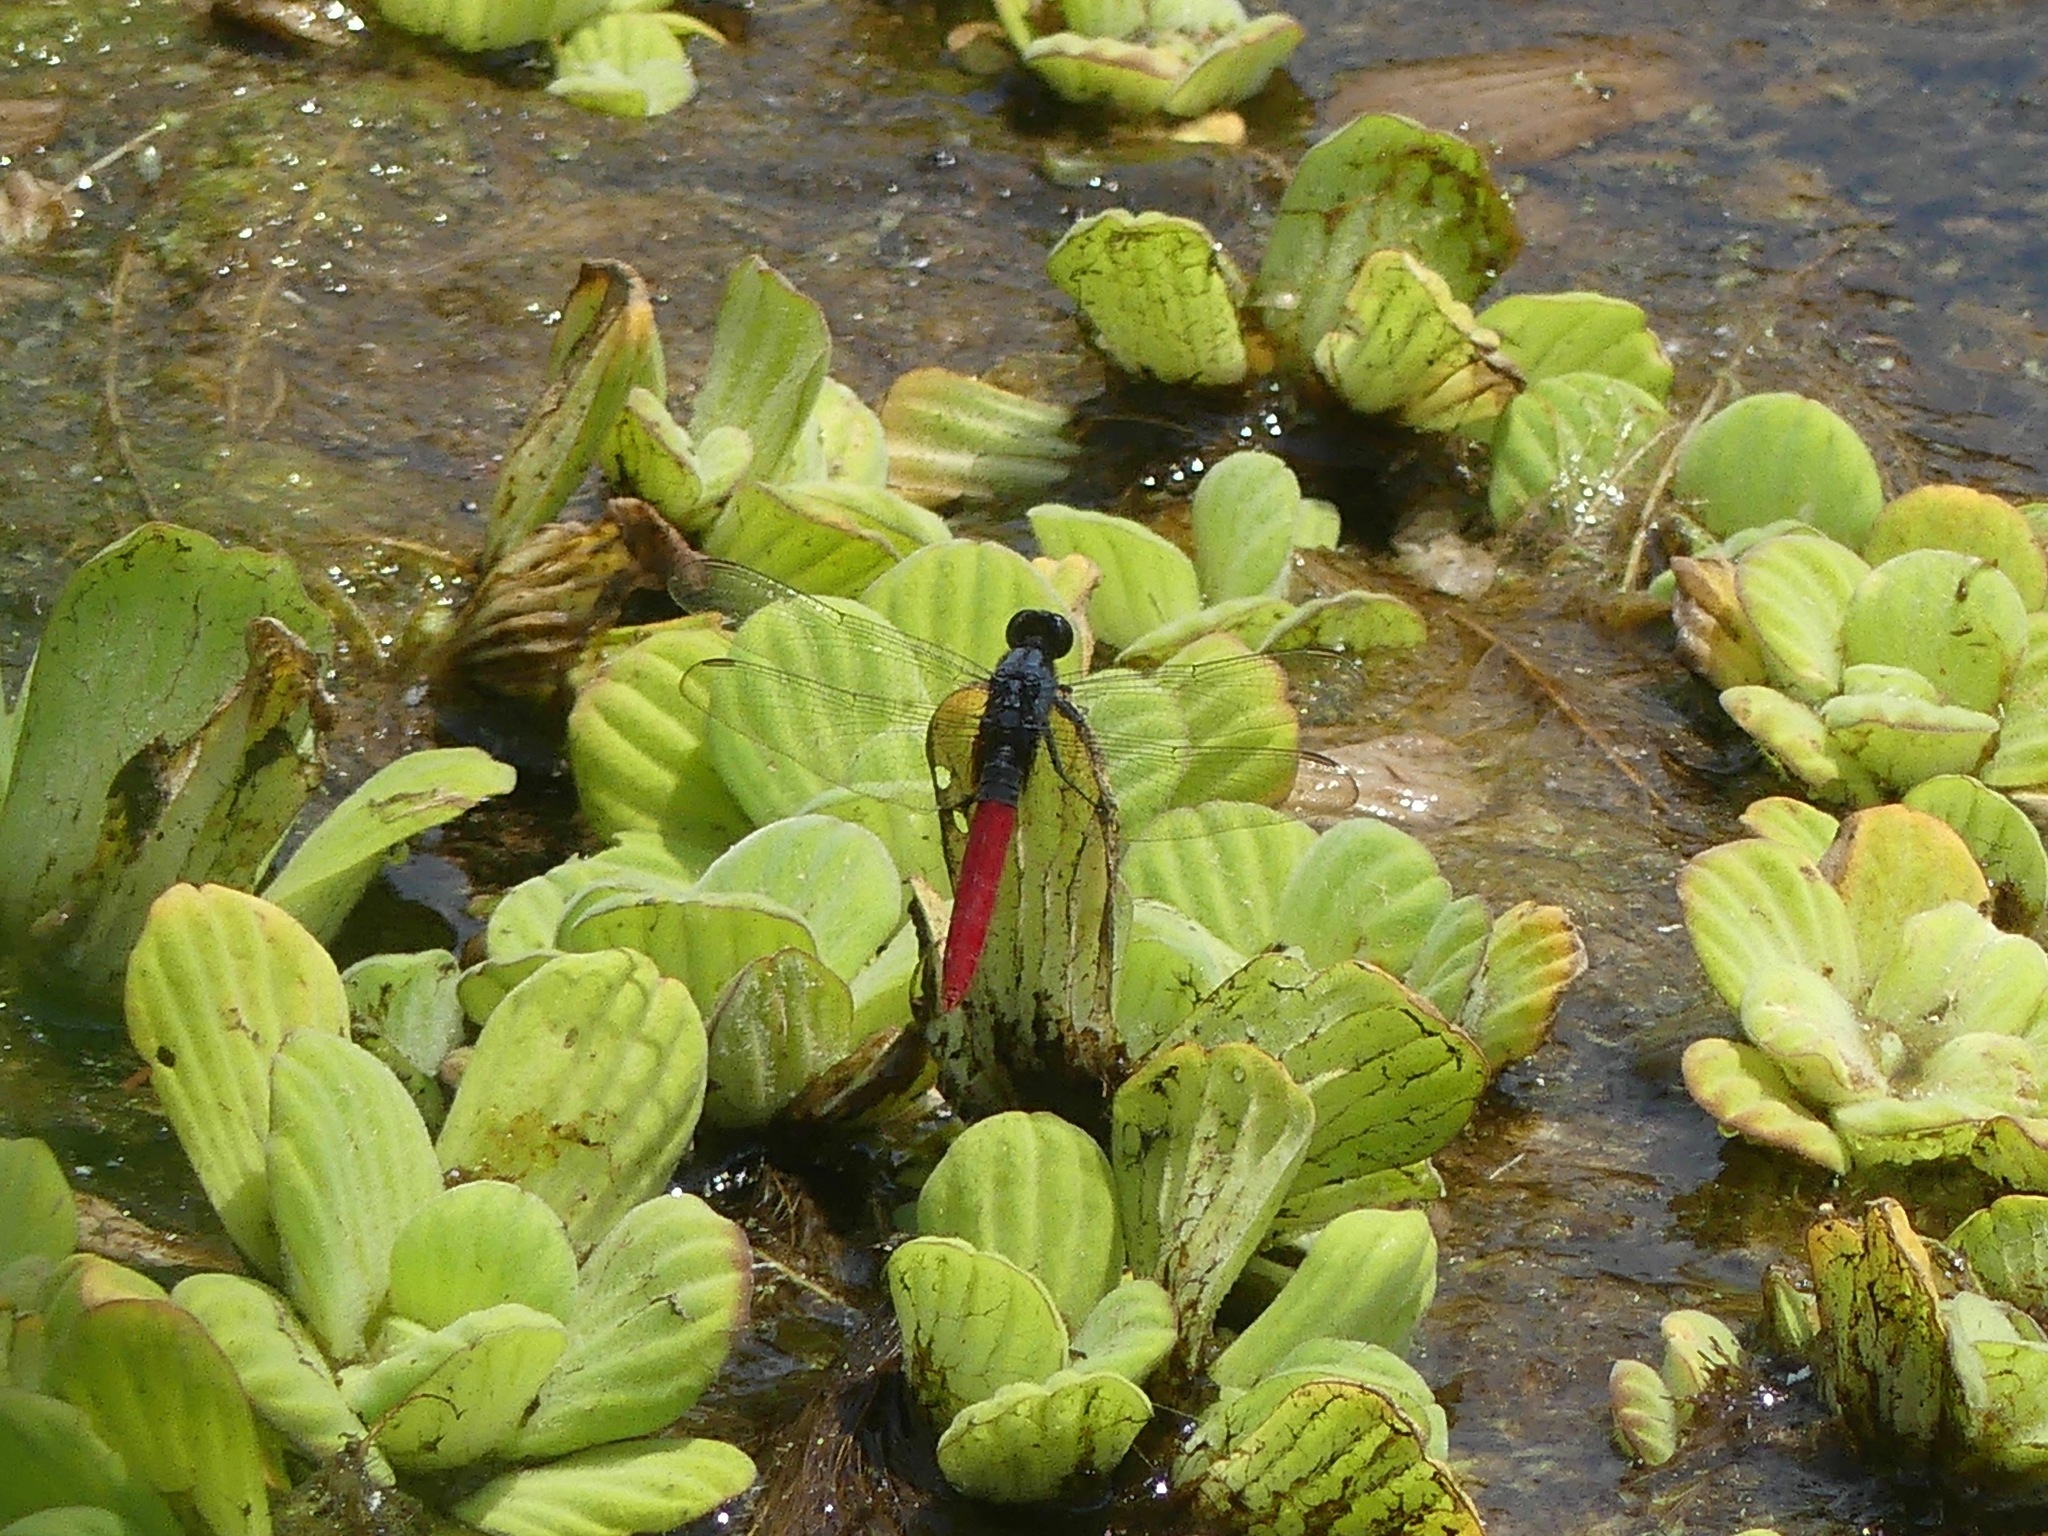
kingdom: Animalia
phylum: Arthropoda
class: Insecta
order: Odonata
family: Libellulidae
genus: Erythemis
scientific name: Erythemis peruviana
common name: Flame-tailed pondhawk
